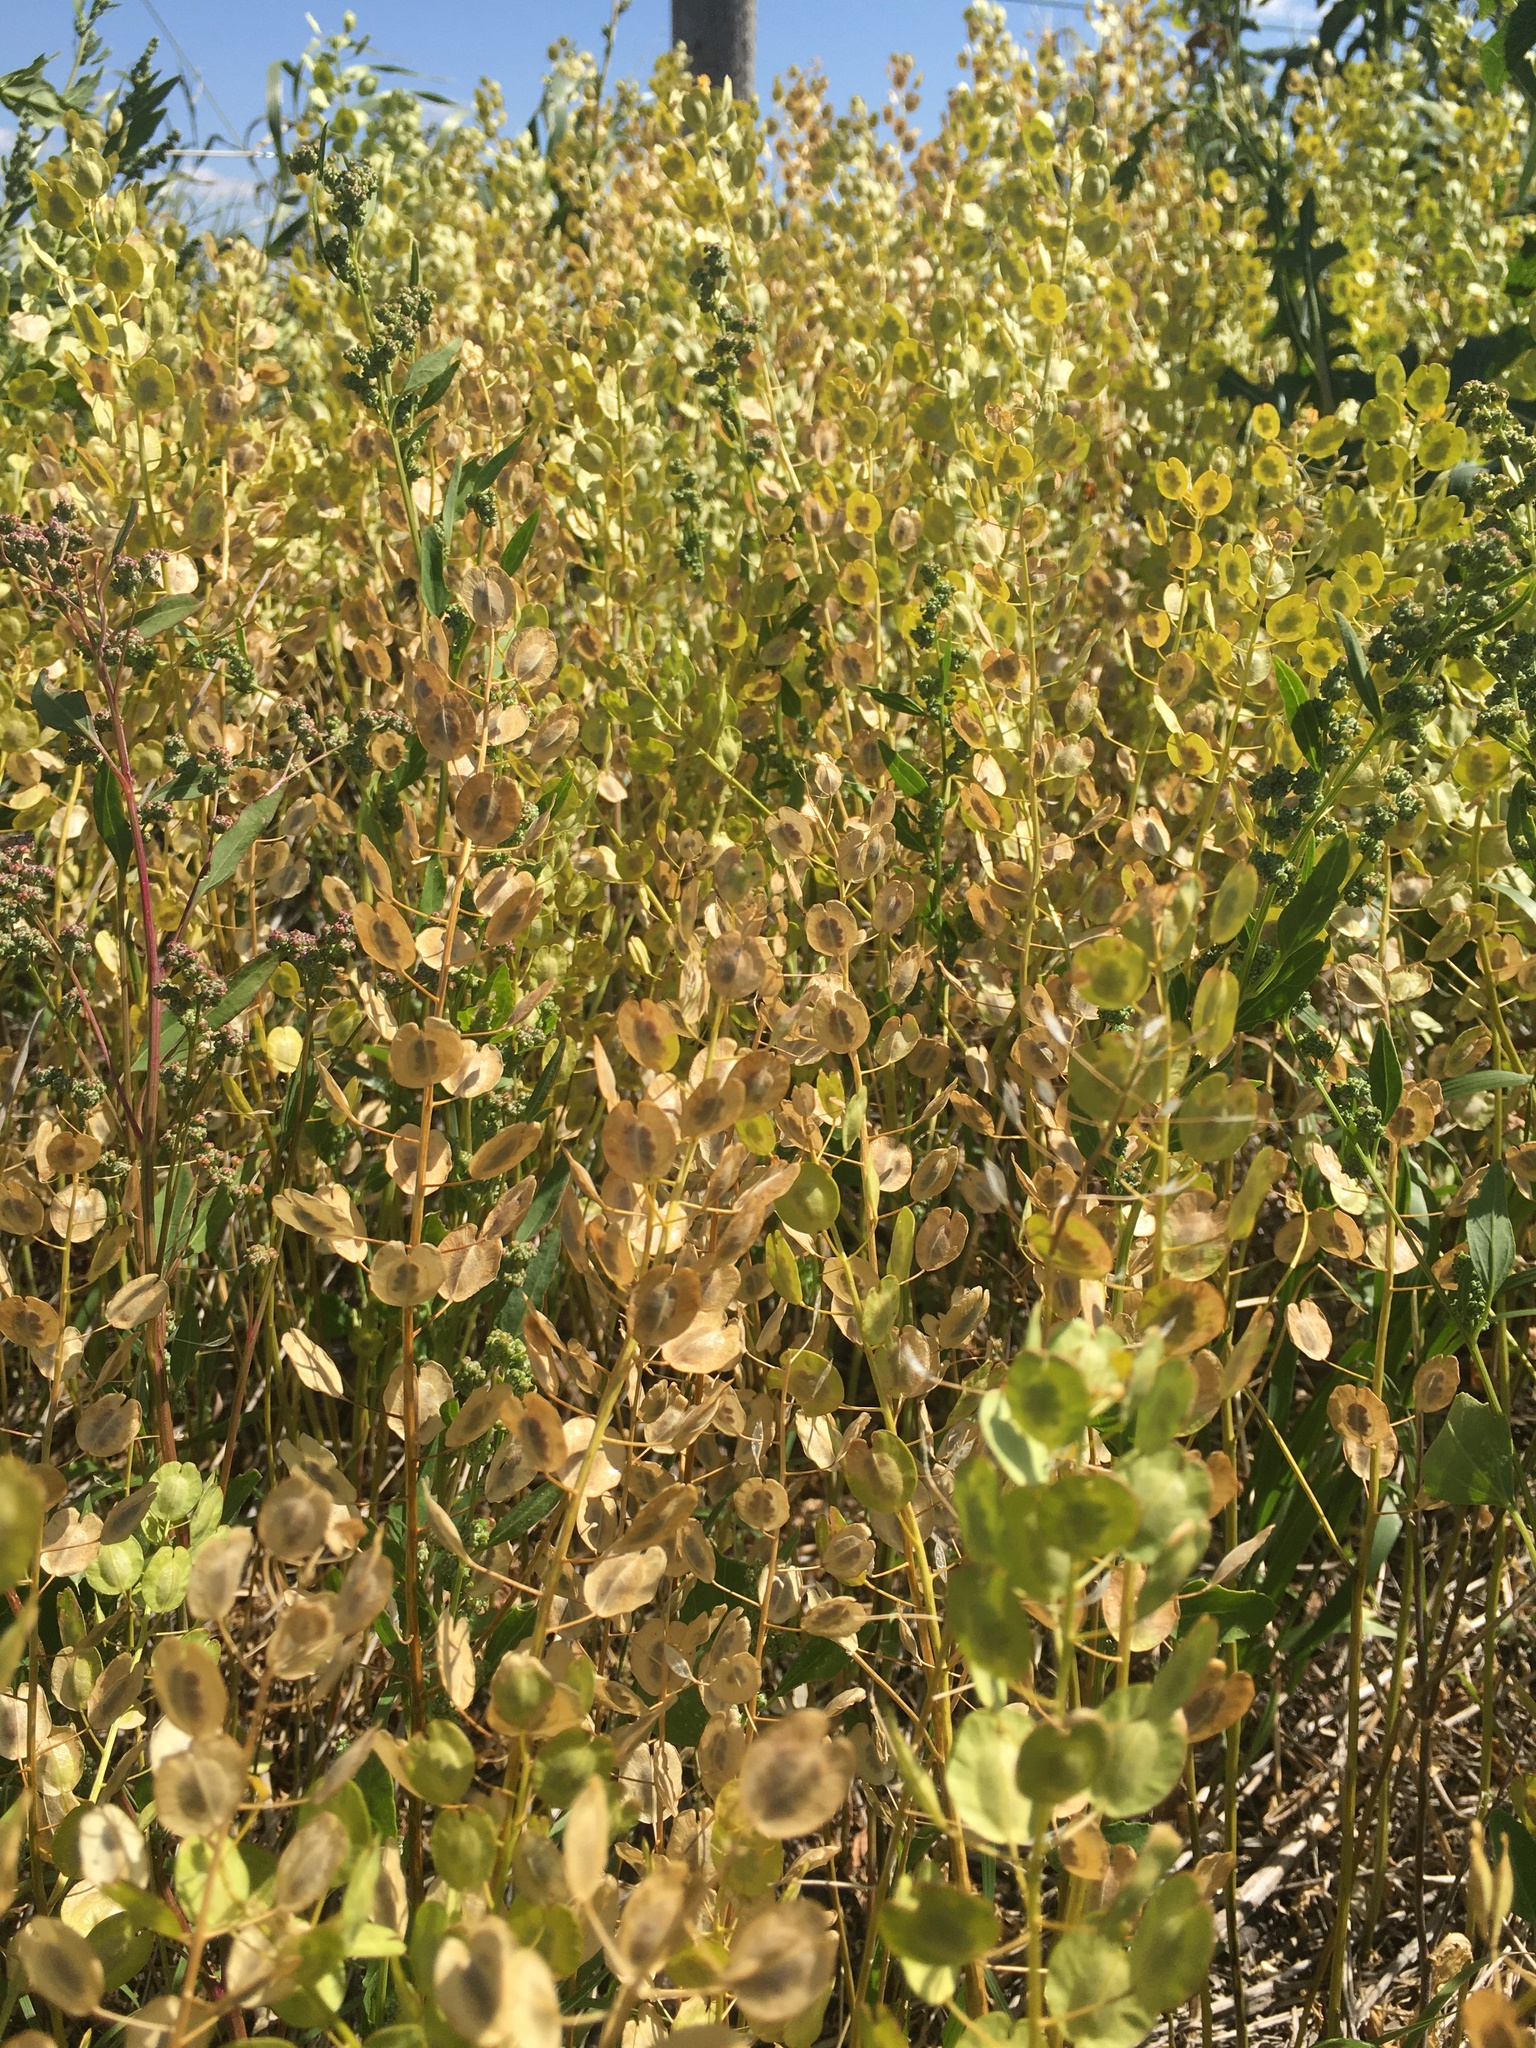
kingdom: Plantae
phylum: Tracheophyta
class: Magnoliopsida
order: Brassicales
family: Brassicaceae
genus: Thlaspi
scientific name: Thlaspi arvense
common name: Field pennycress
